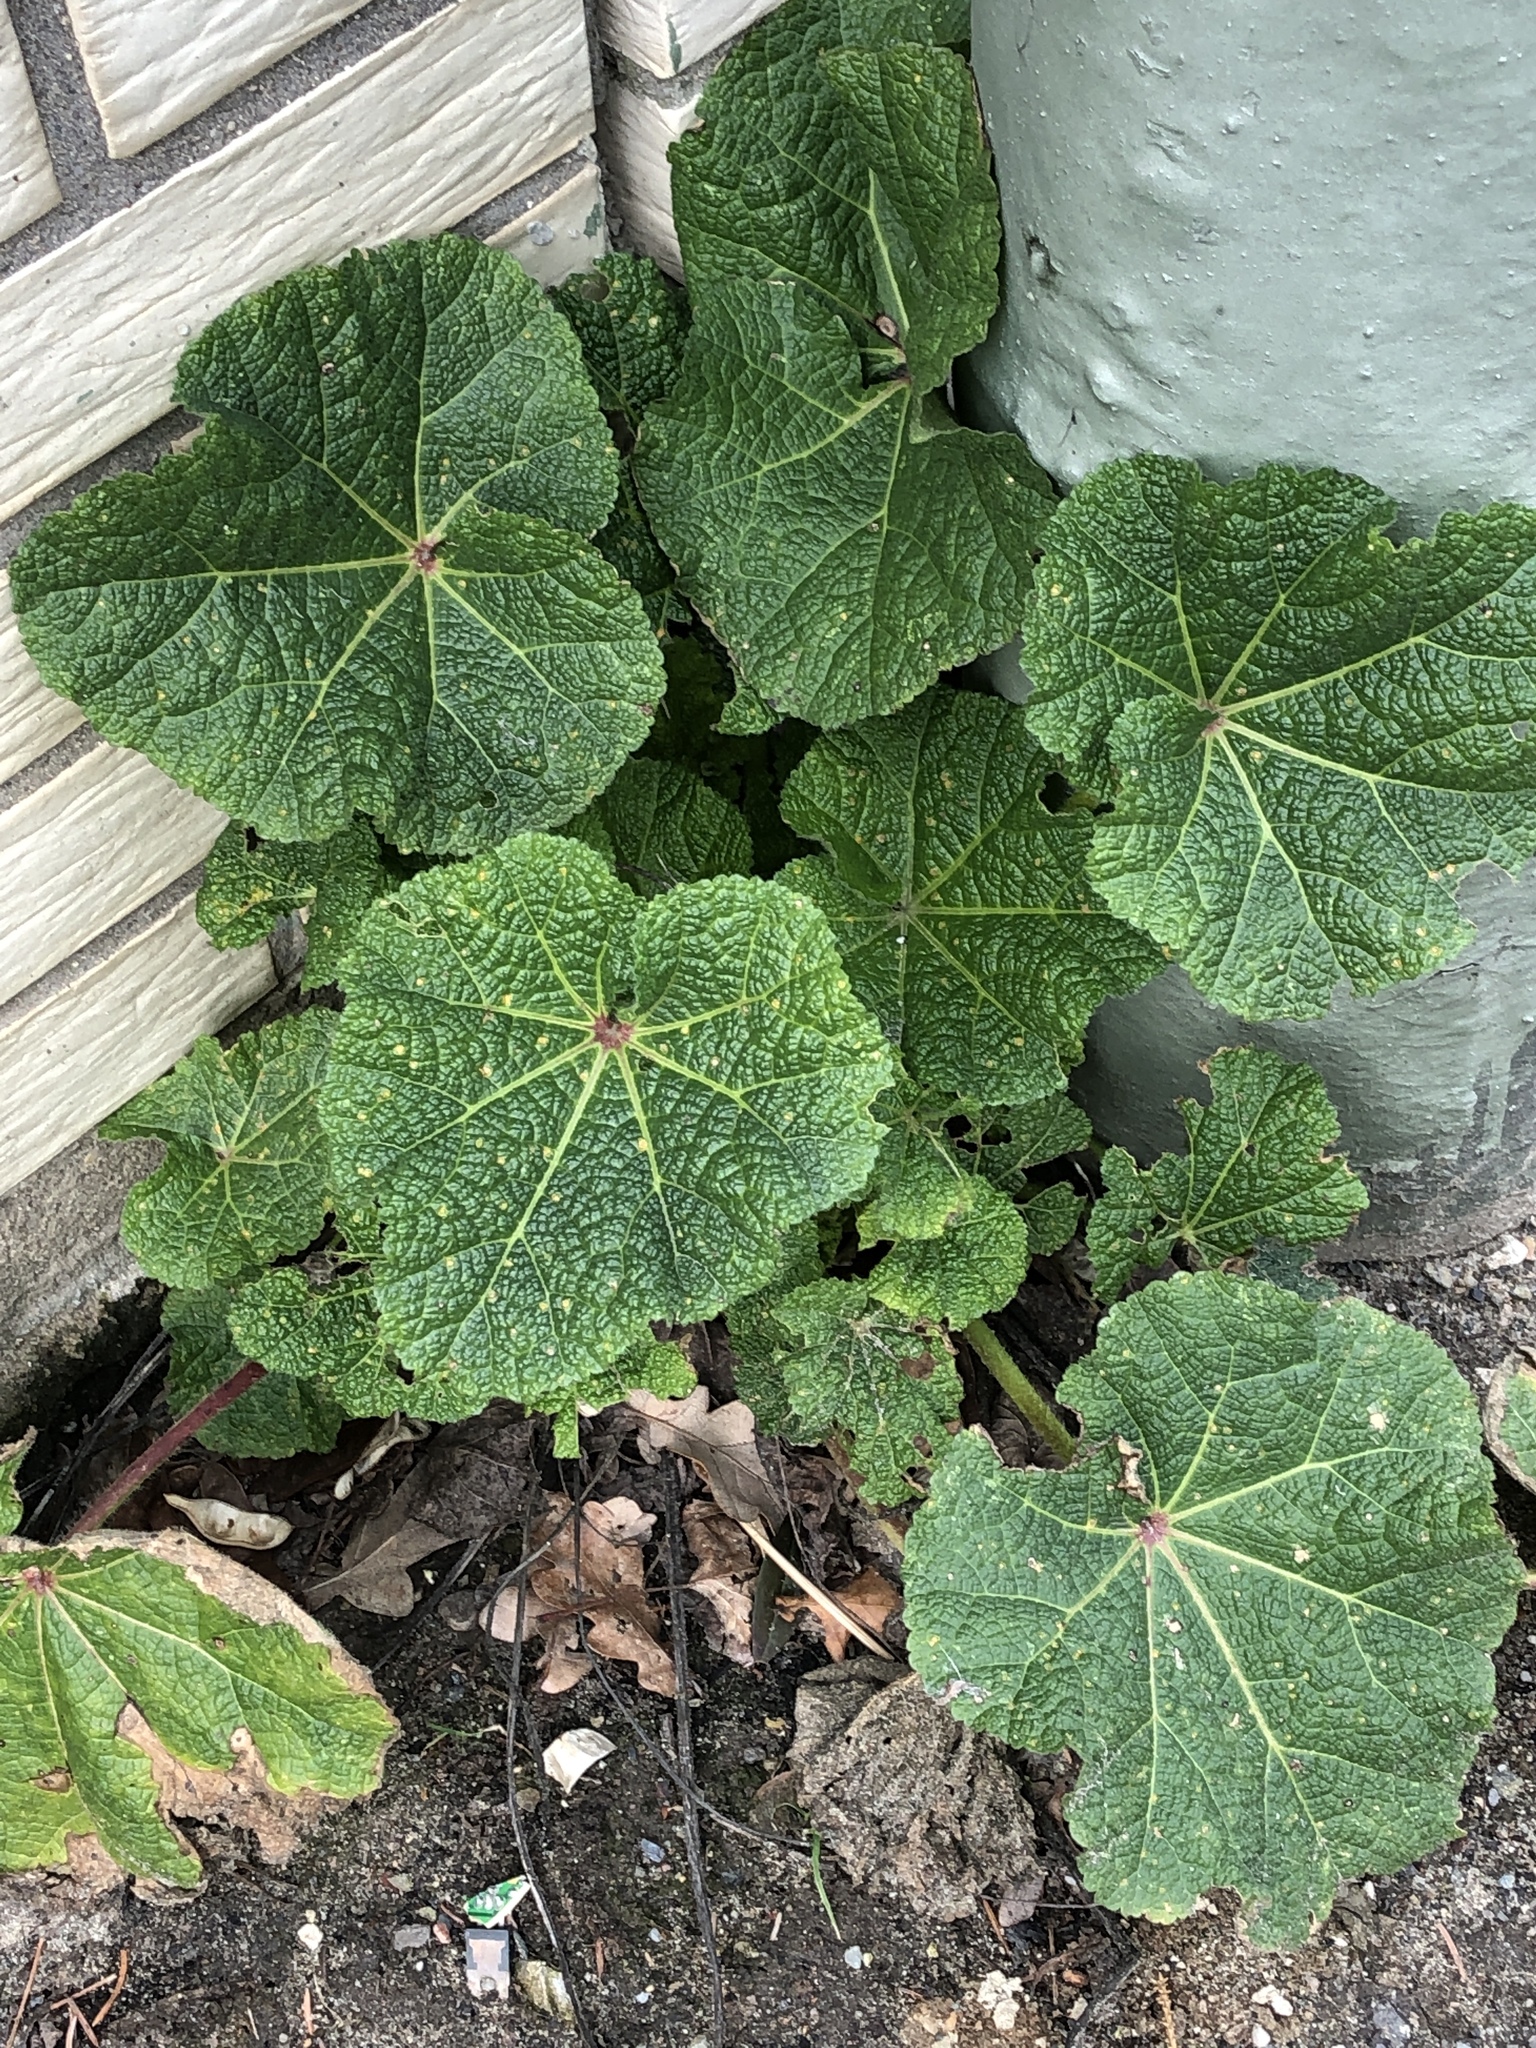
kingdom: Plantae
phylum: Tracheophyta
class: Magnoliopsida
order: Malvales
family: Malvaceae
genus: Alcea
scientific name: Alcea rosea
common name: Hollyhock
